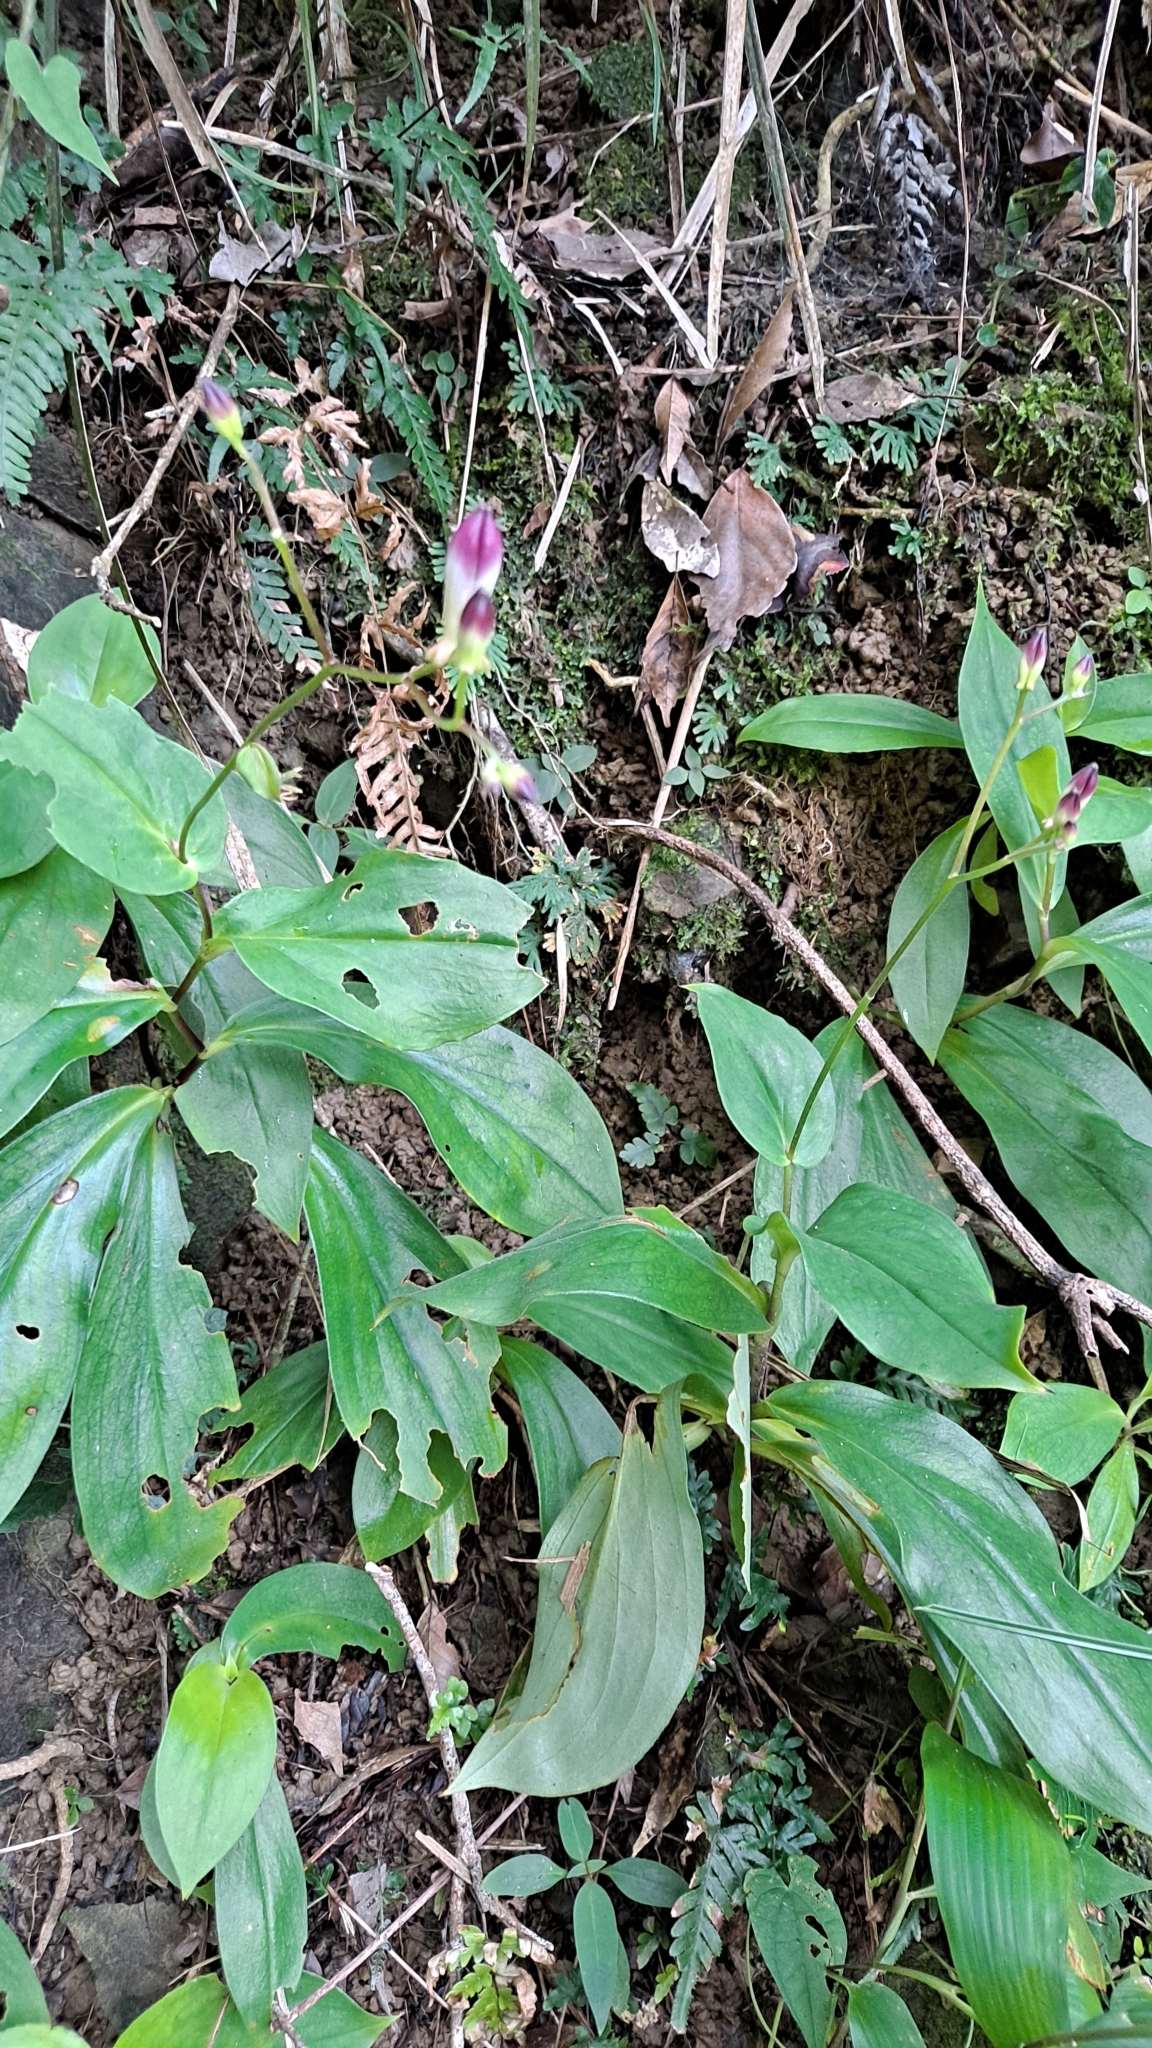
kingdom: Plantae
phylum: Tracheophyta
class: Liliopsida
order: Liliales
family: Liliaceae
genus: Tricyrtis
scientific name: Tricyrtis lasiocarpa
